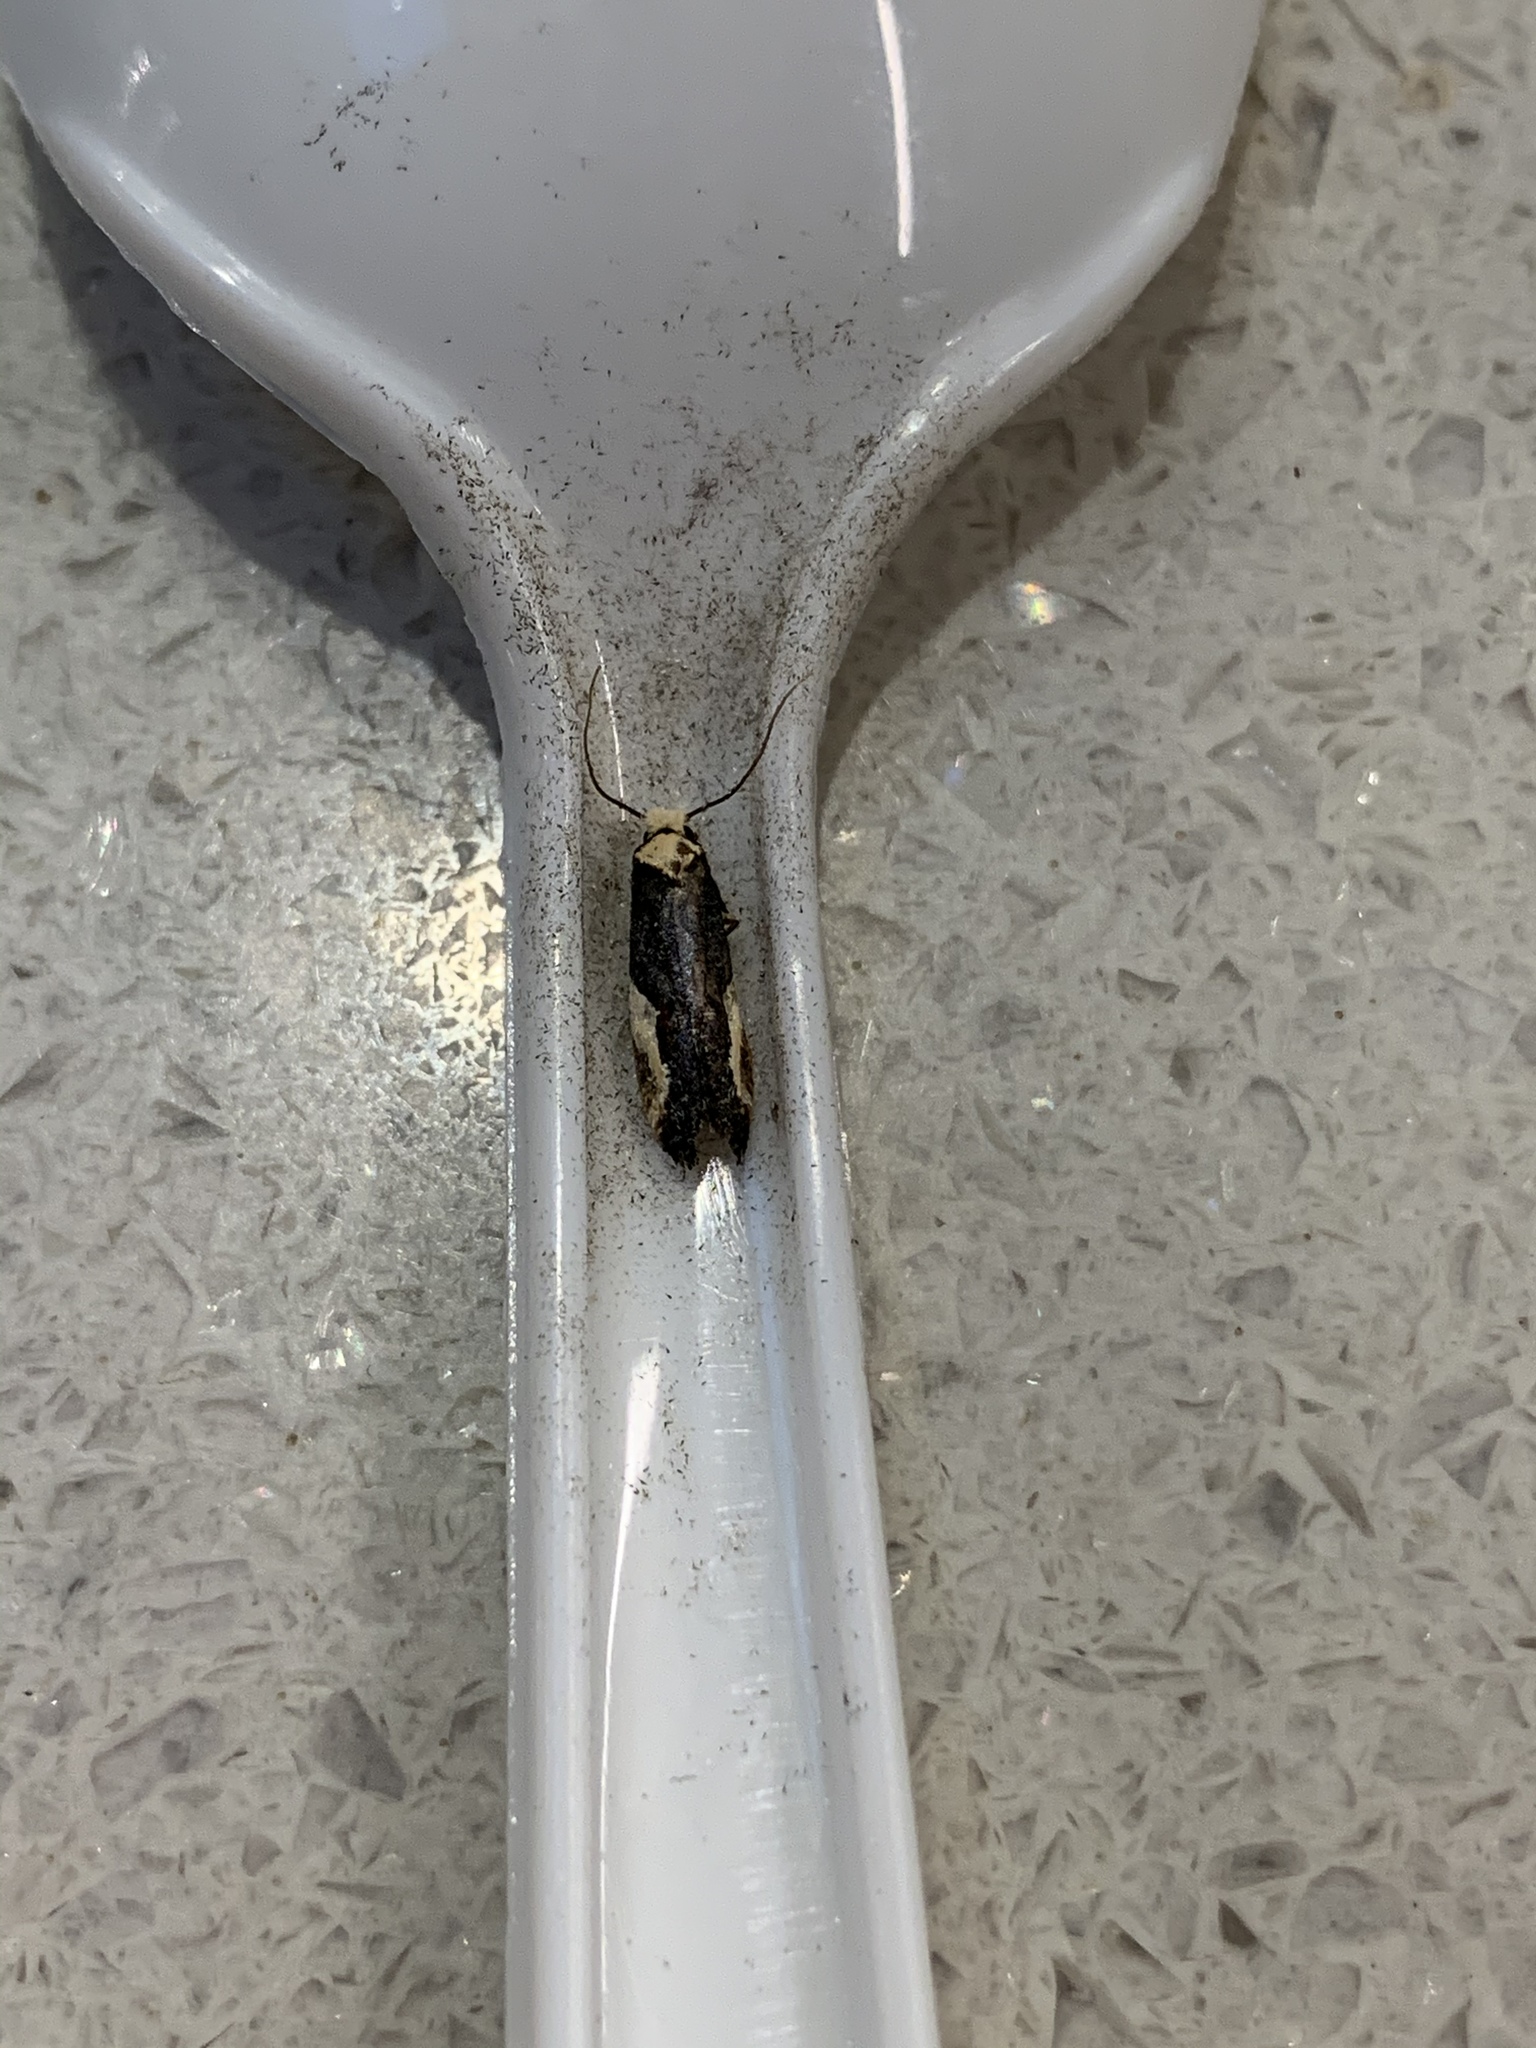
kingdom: Animalia
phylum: Arthropoda
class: Insecta
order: Lepidoptera
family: Tineidae
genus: Monopis
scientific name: Monopis longella
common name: Pavlovski's monopis moth
